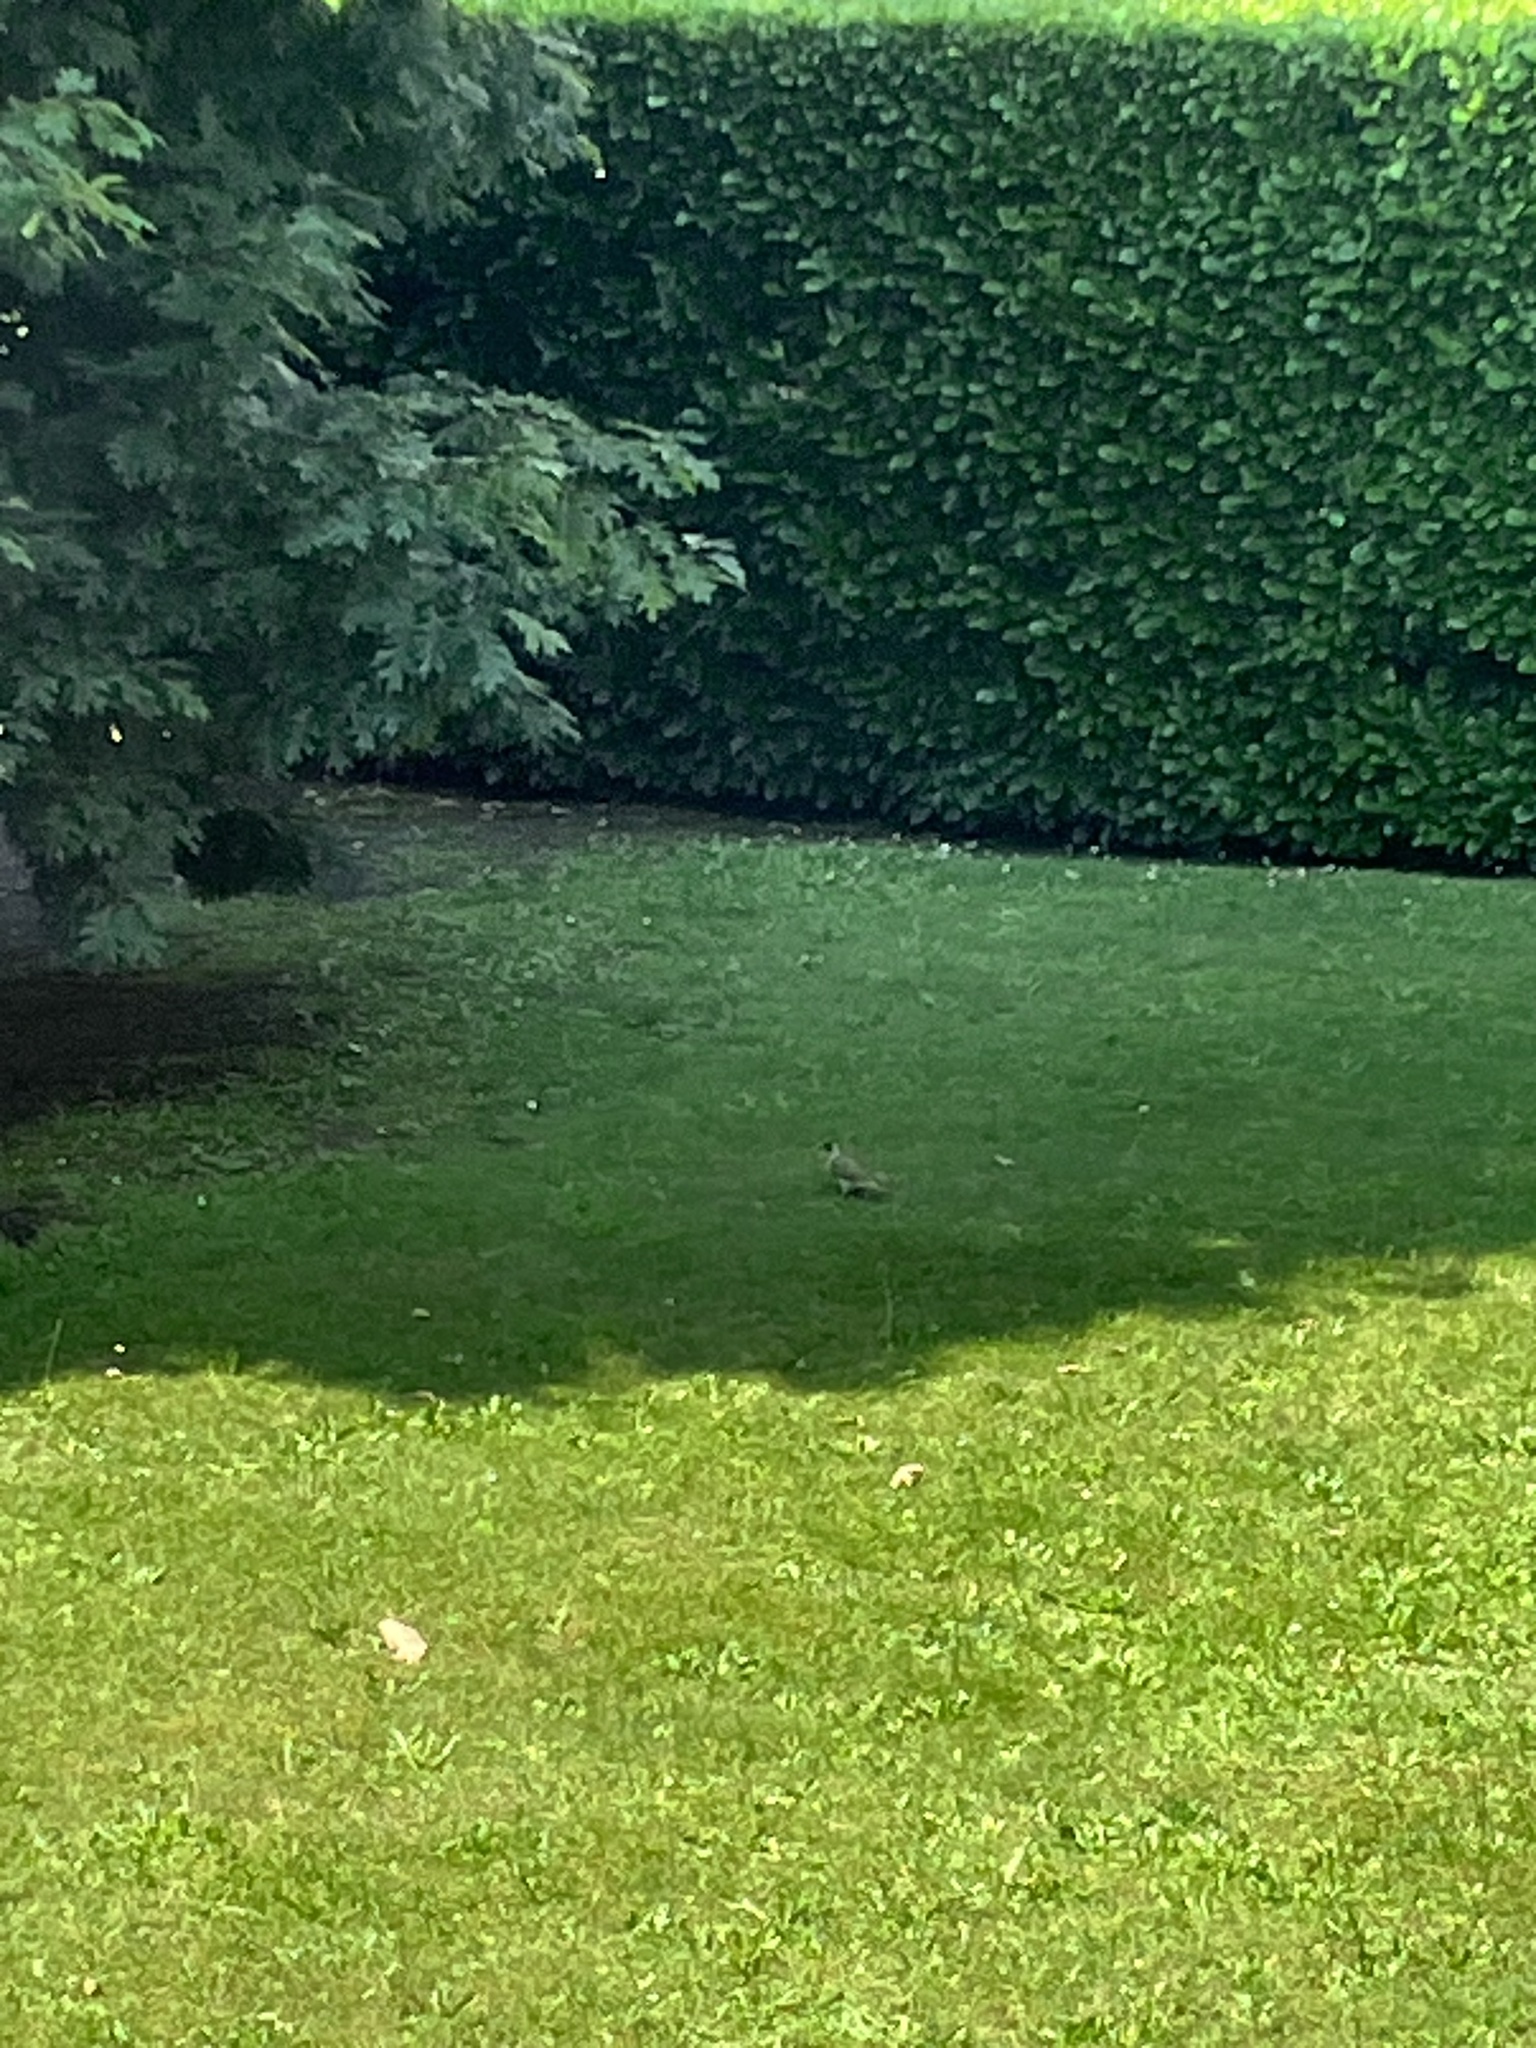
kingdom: Animalia
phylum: Chordata
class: Aves
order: Piciformes
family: Picidae
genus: Picus
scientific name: Picus viridis
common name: European green woodpecker
